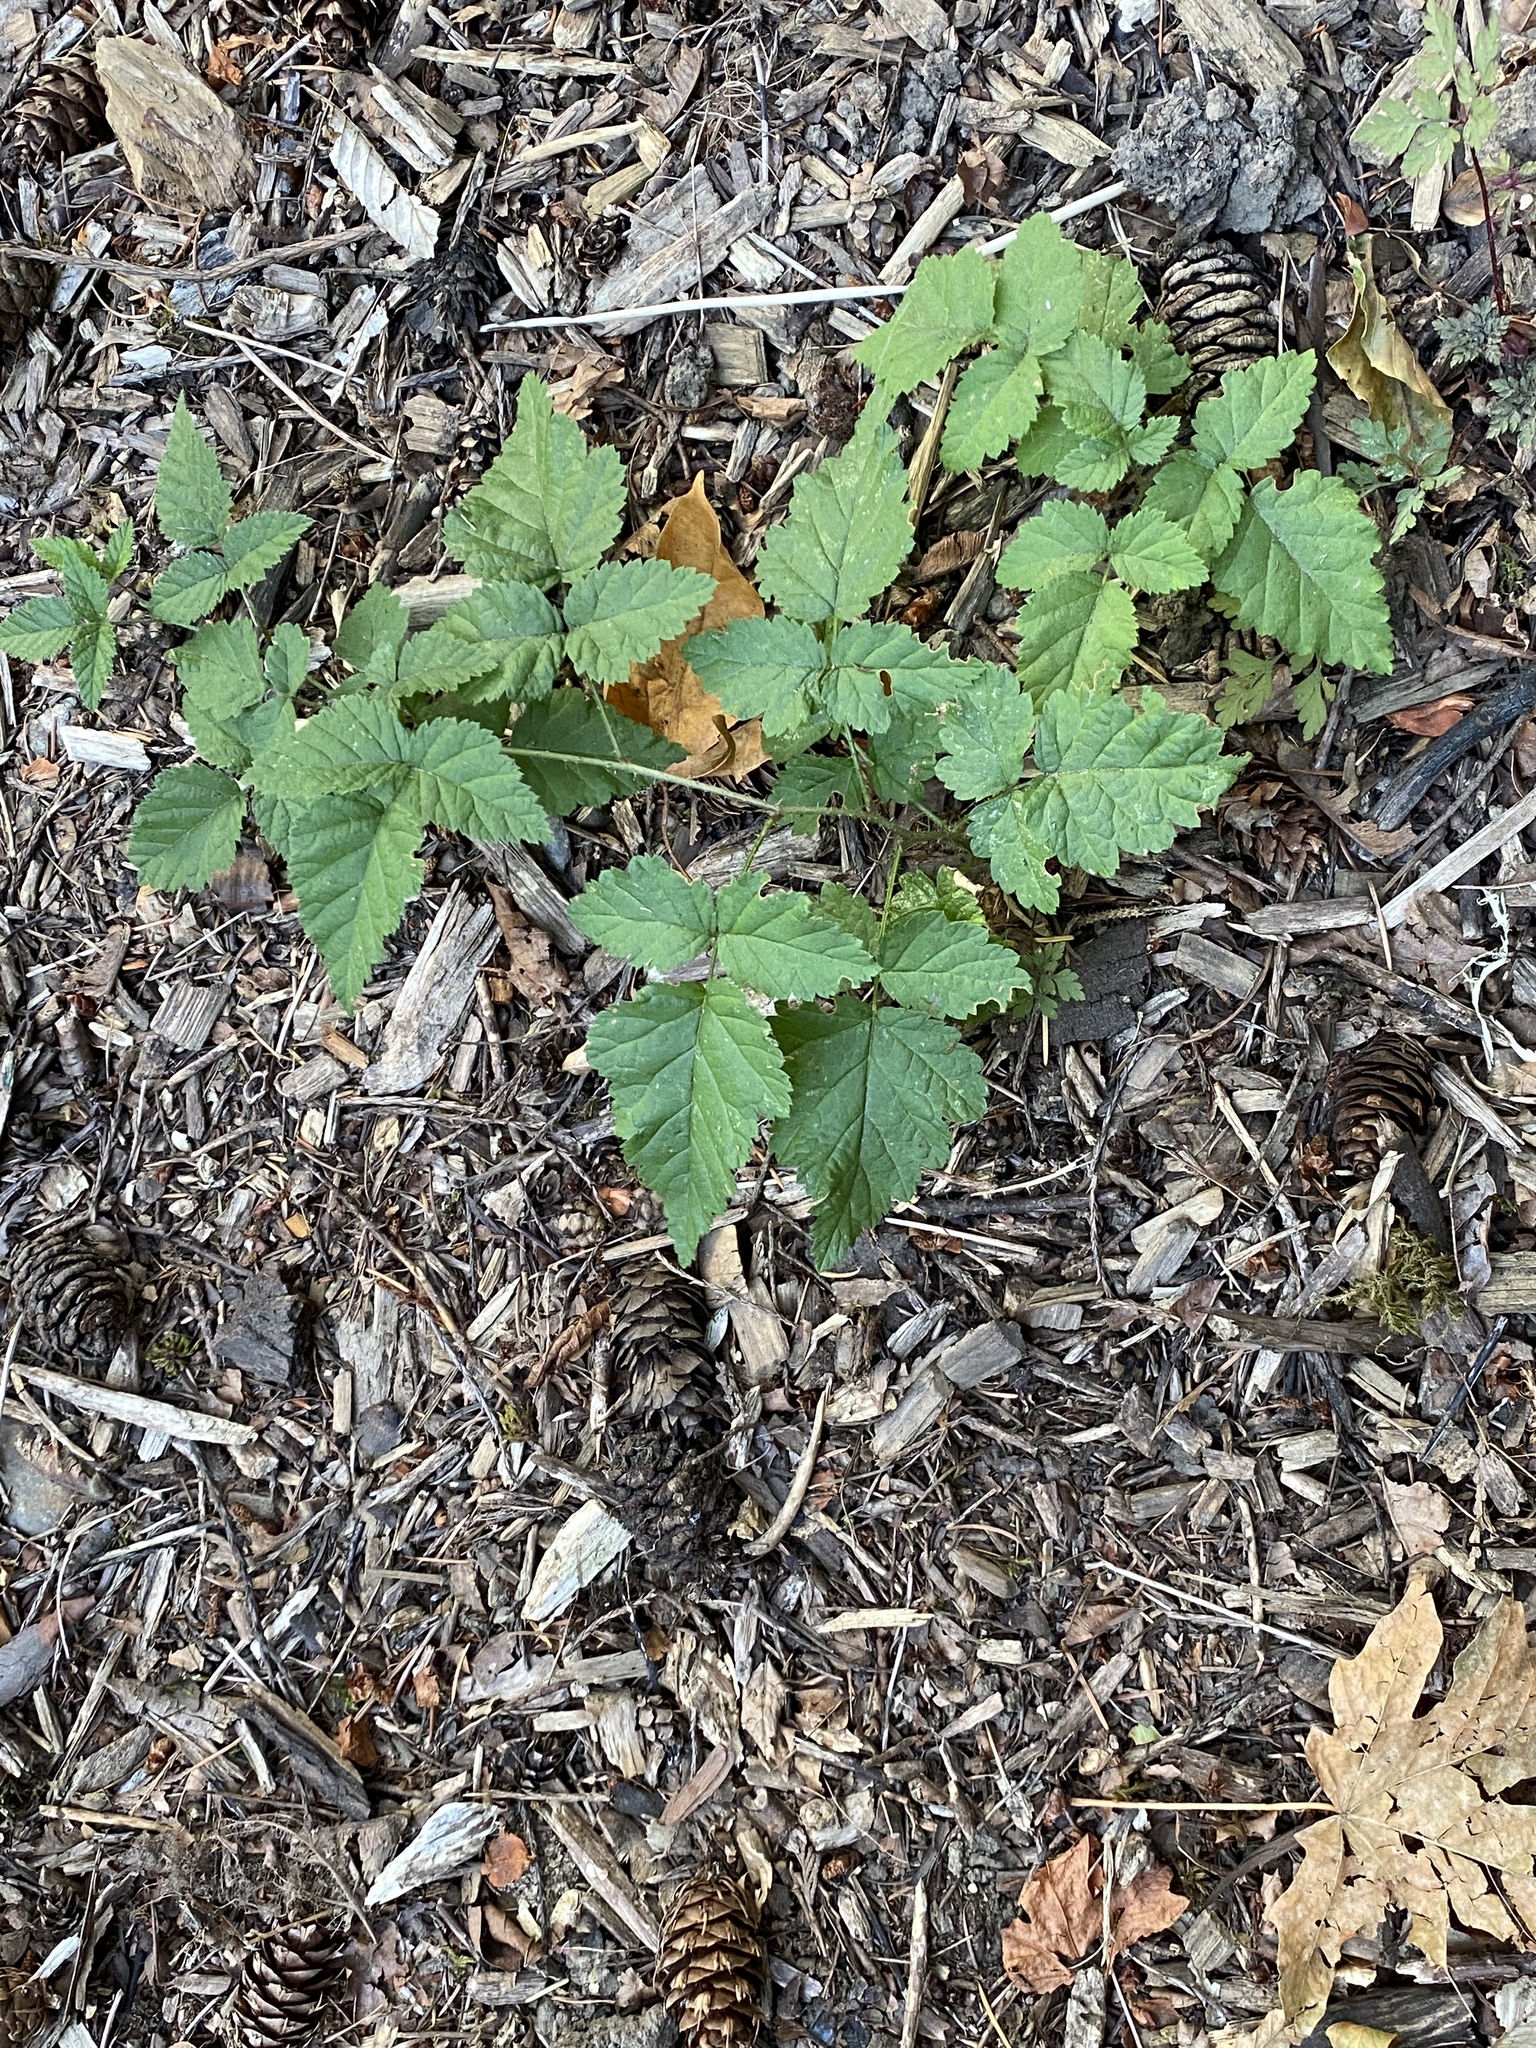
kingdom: Plantae
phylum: Tracheophyta
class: Magnoliopsida
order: Rosales
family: Rosaceae
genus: Rubus
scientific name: Rubus ursinus
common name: Pacific blackberry
